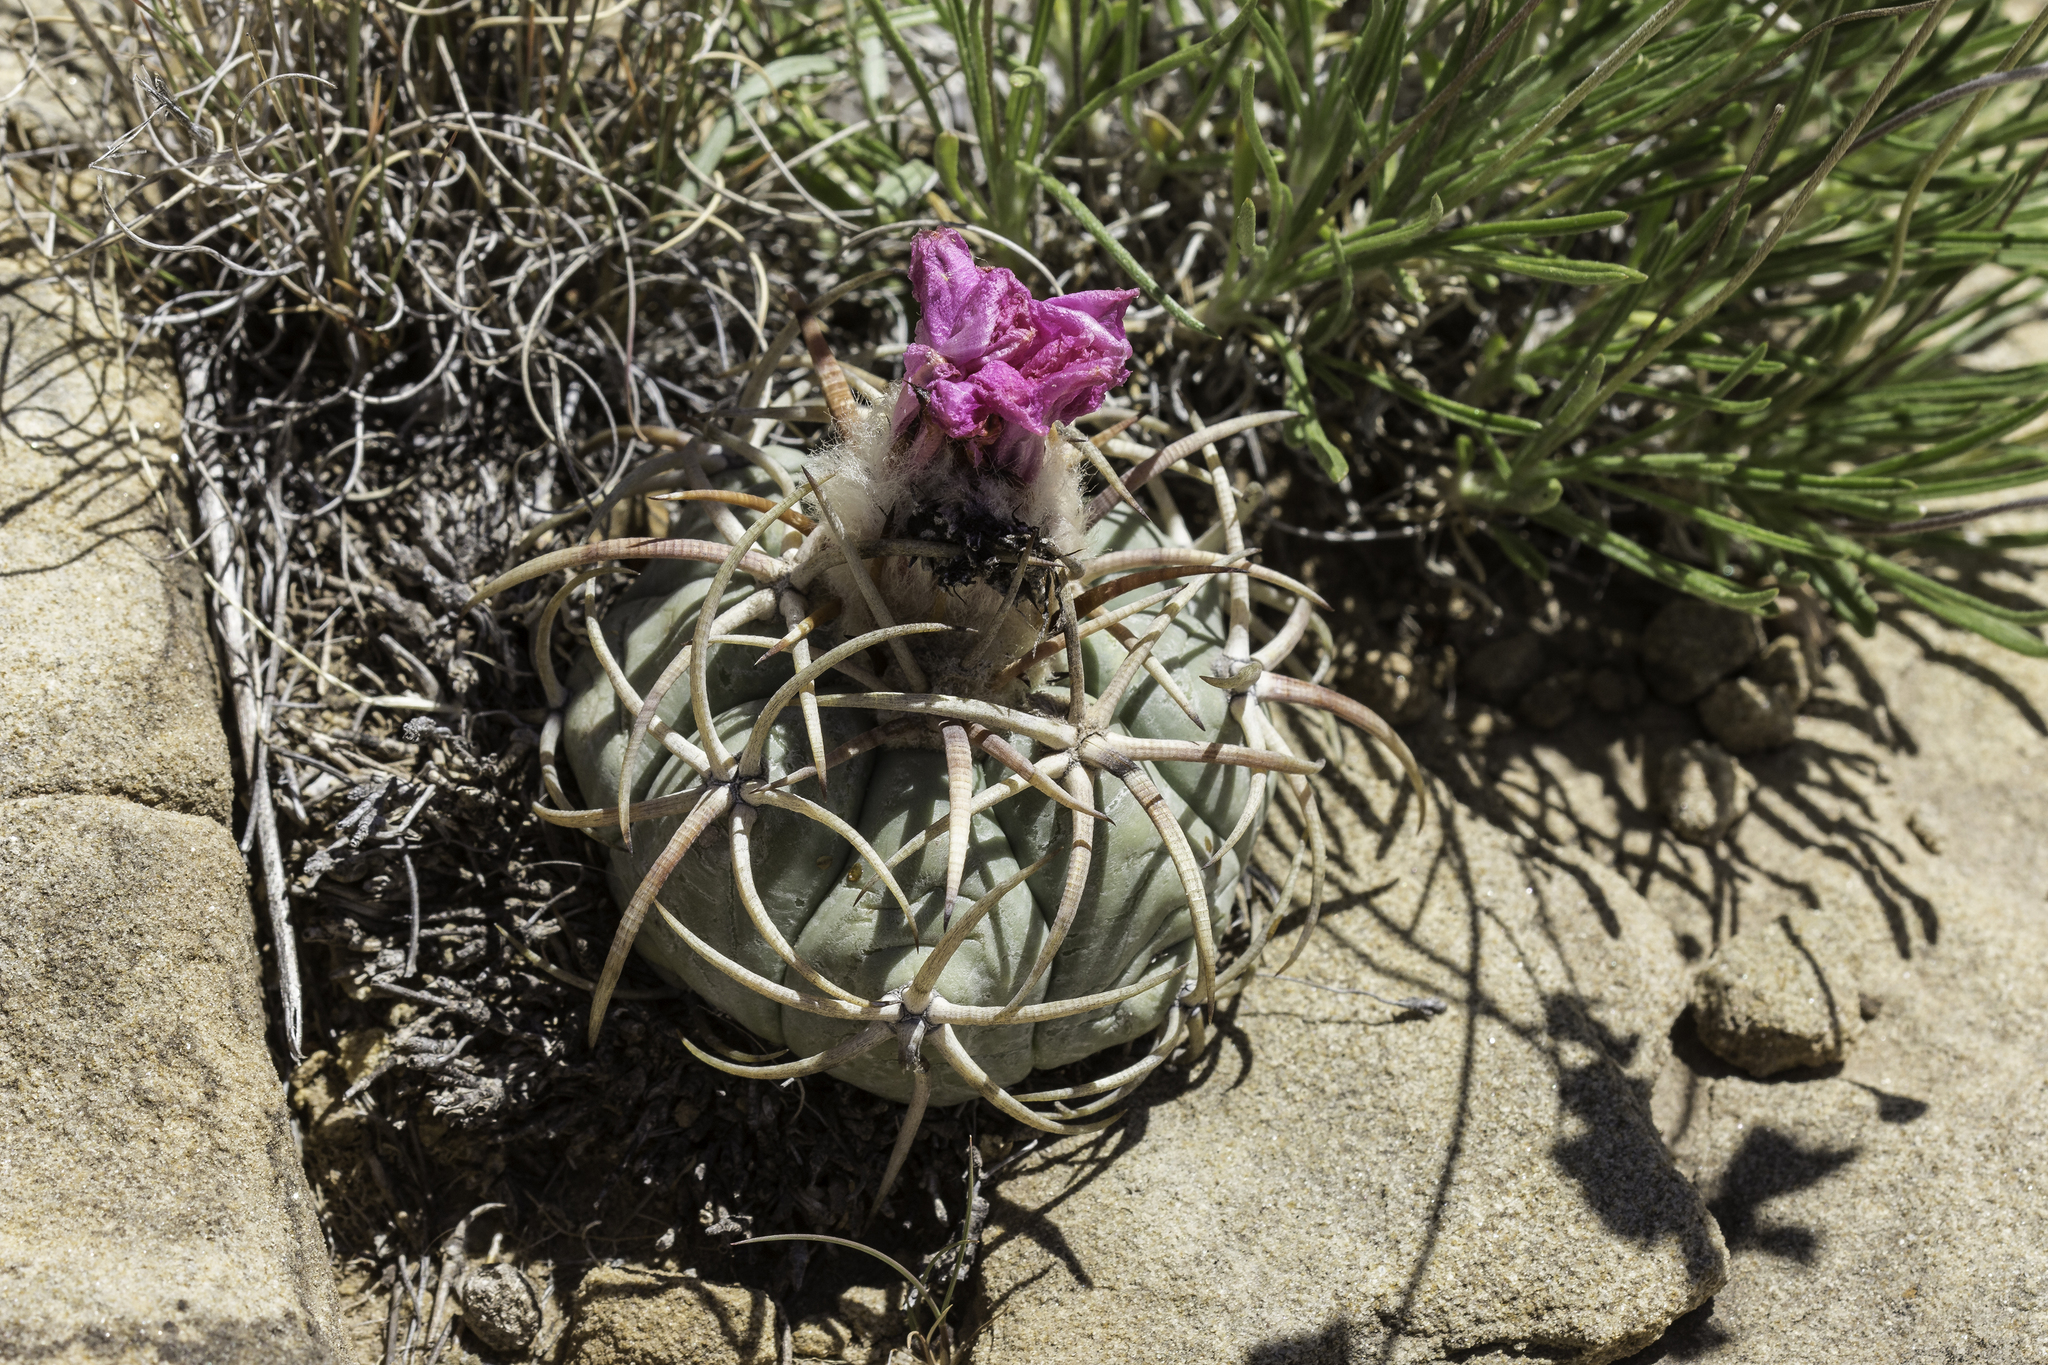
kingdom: Plantae
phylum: Tracheophyta
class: Magnoliopsida
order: Caryophyllales
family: Cactaceae
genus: Echinocactus
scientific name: Echinocactus horizonthalonius
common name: Devilshead
